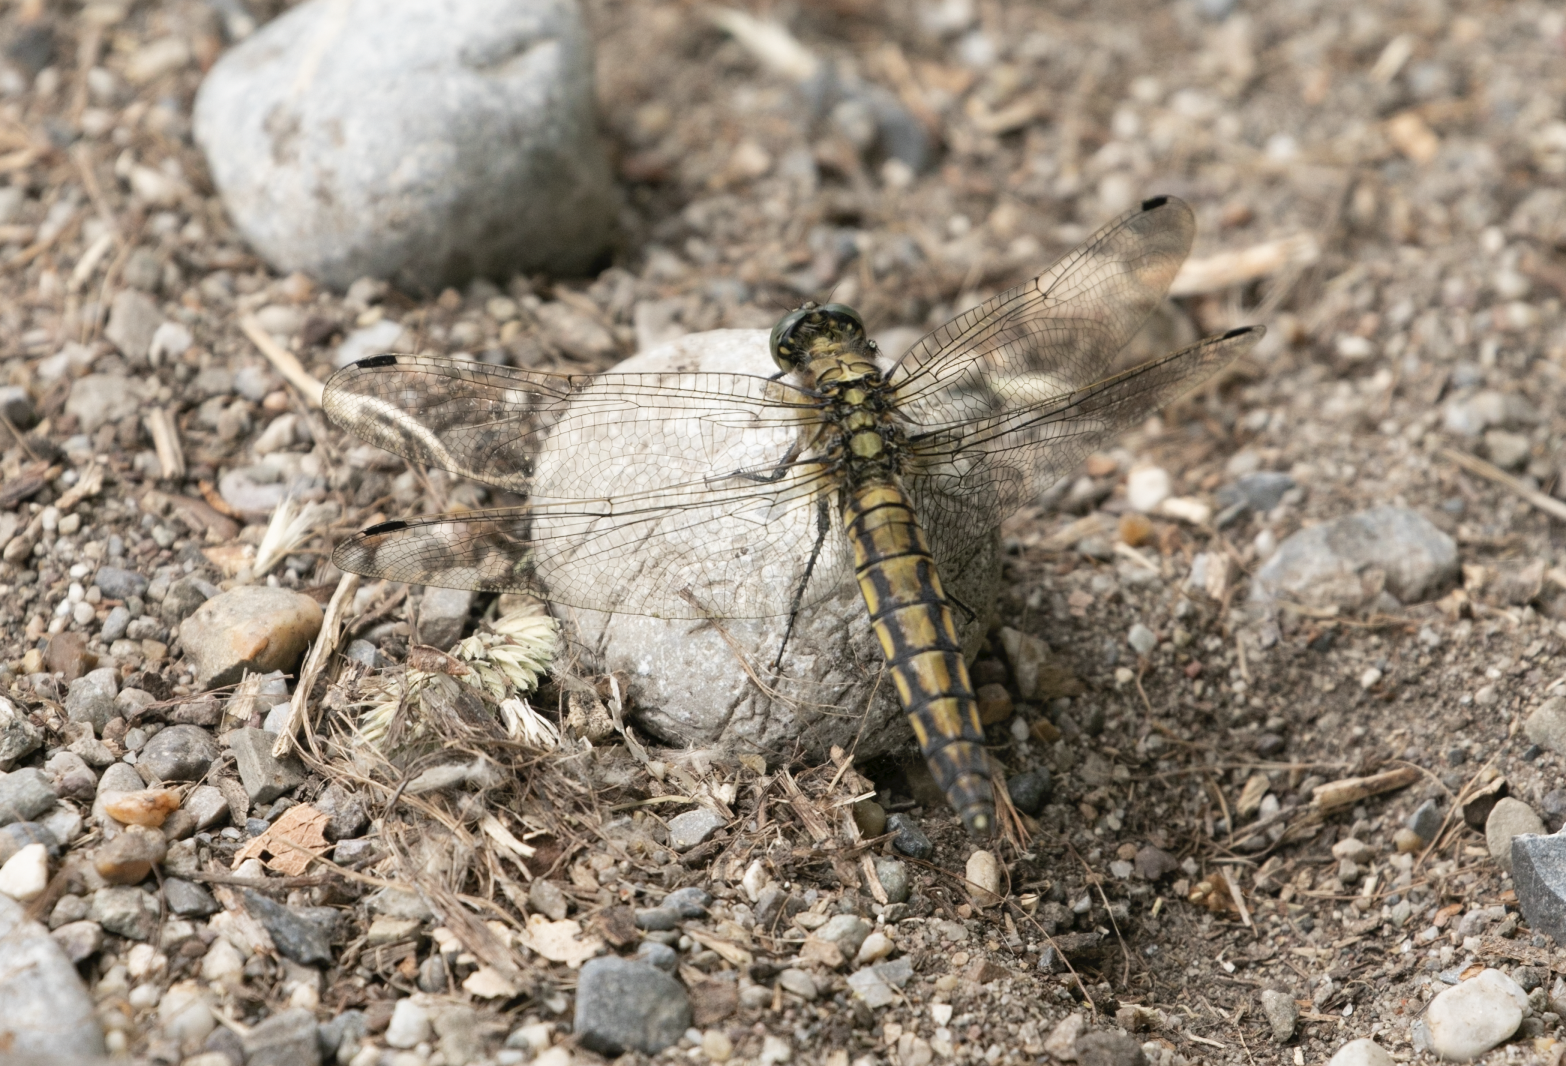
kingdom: Animalia
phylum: Arthropoda
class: Insecta
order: Odonata
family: Libellulidae
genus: Orthetrum
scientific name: Orthetrum cancellatum
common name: Black-tailed skimmer
